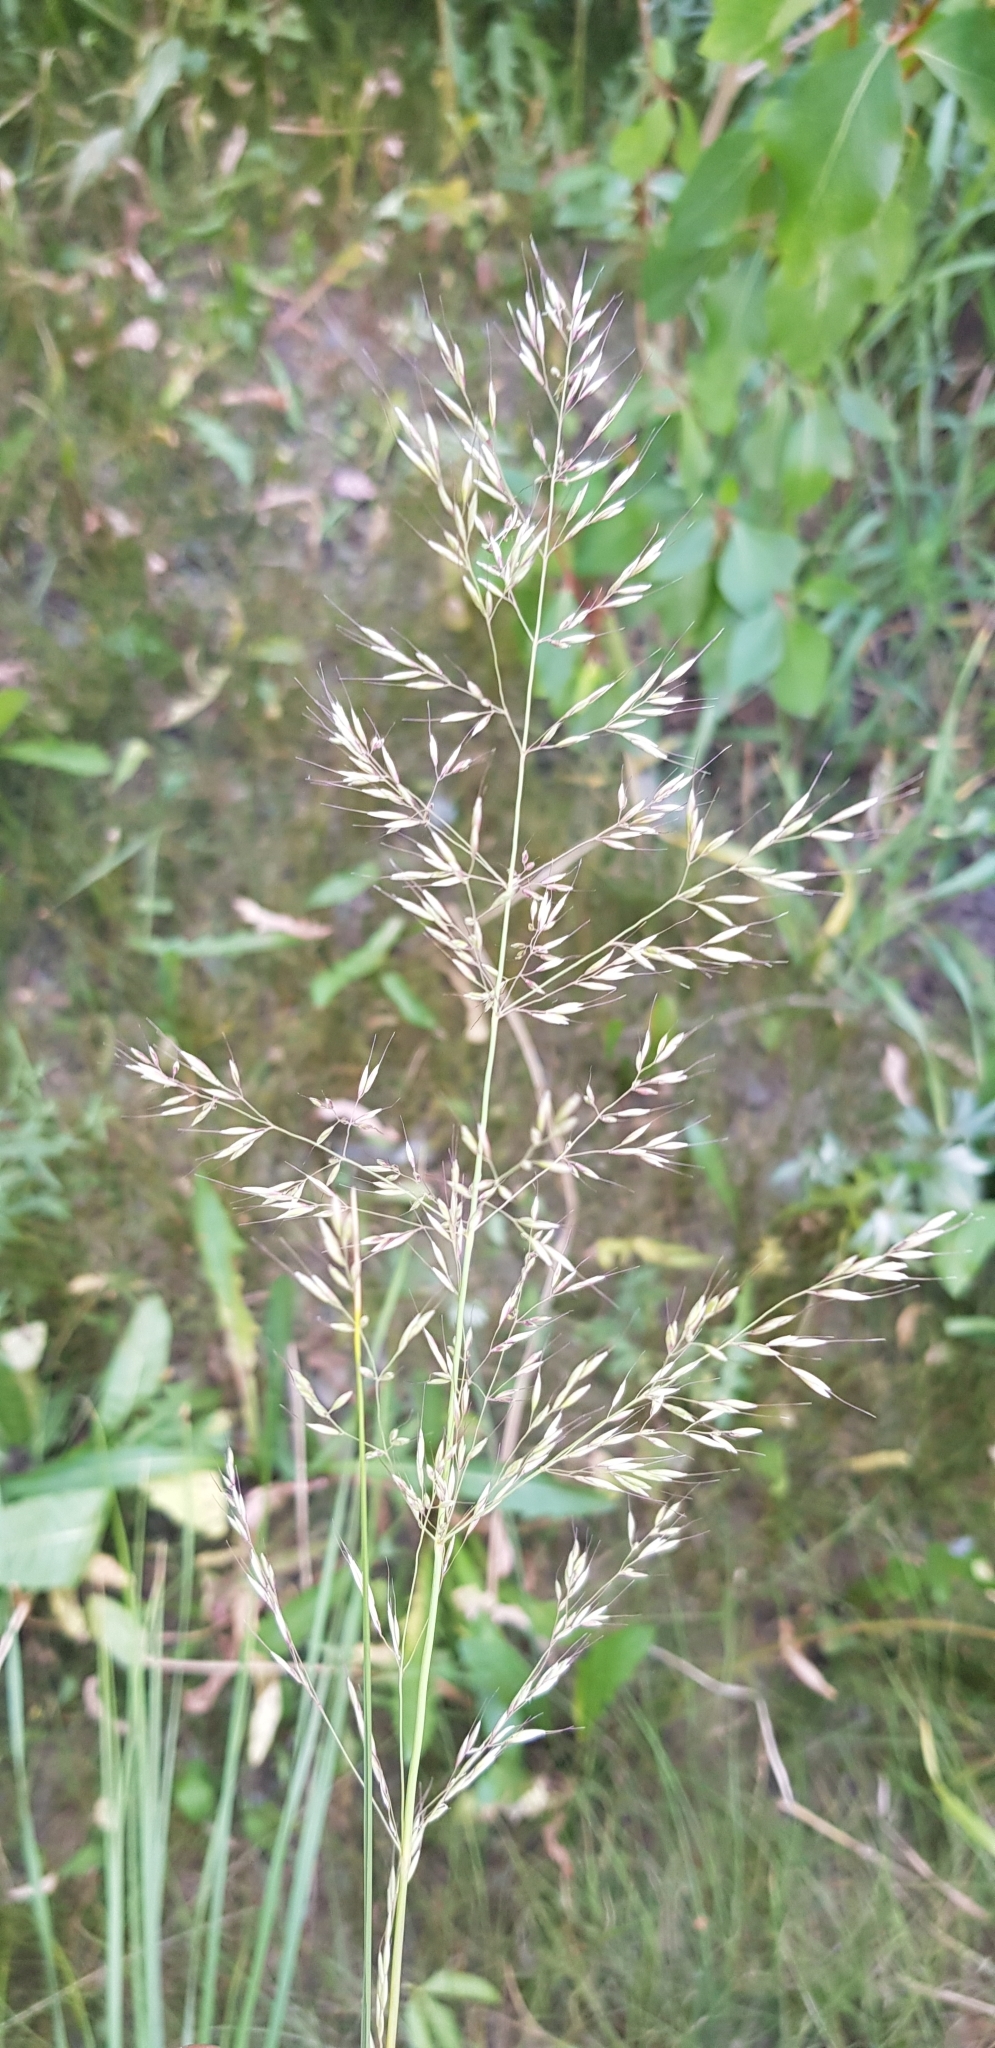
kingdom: Plantae
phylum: Tracheophyta
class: Liliopsida
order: Poales
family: Poaceae
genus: Poa
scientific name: Poa pratensis
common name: Kentucky bluegrass
